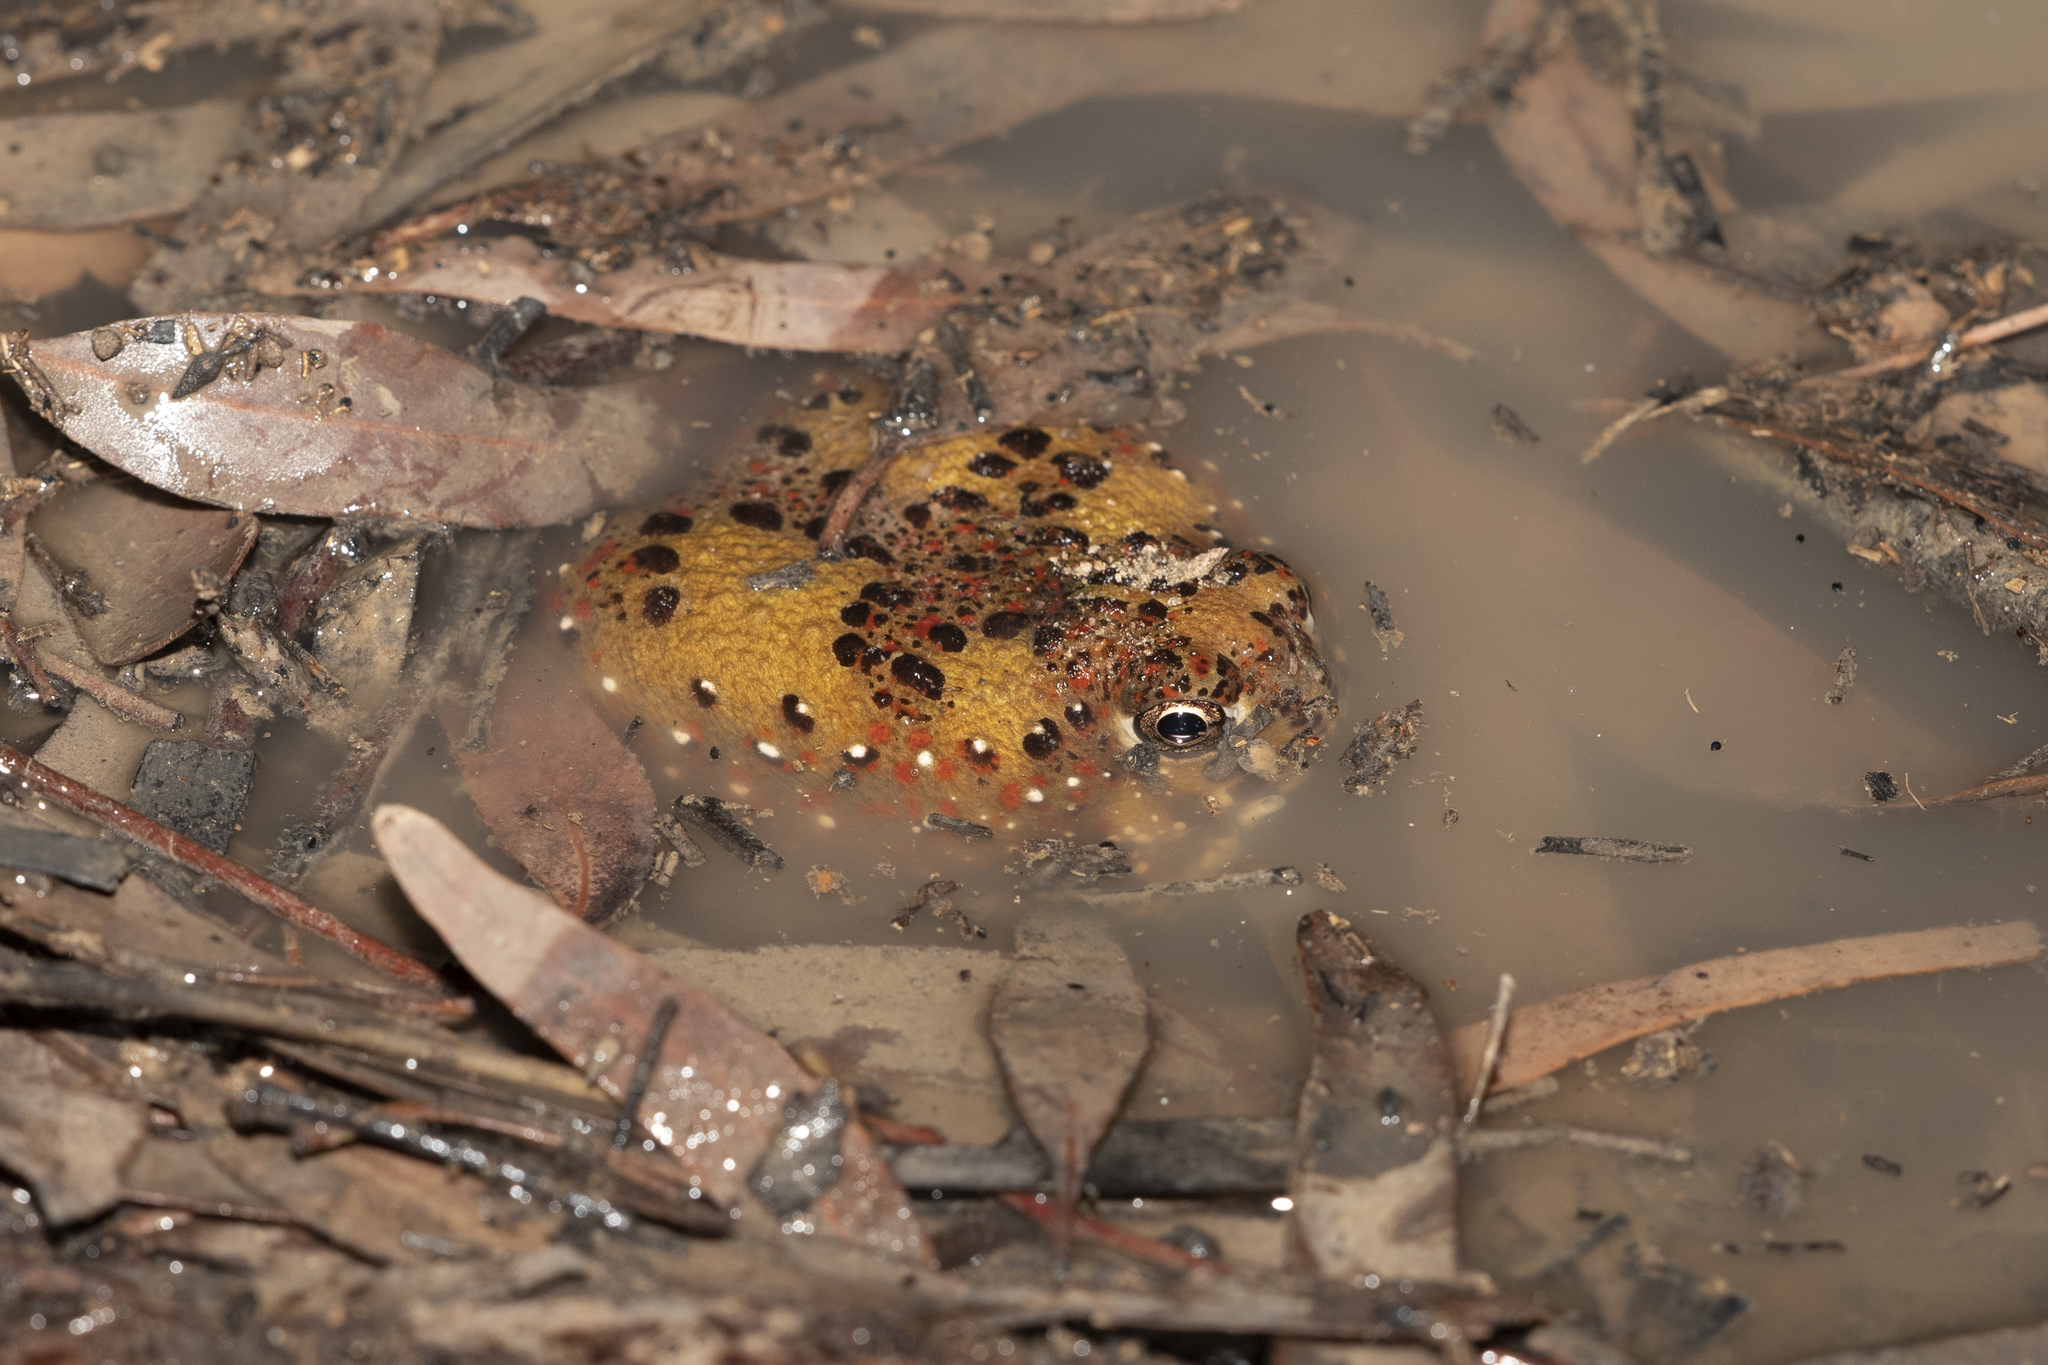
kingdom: Animalia
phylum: Chordata
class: Amphibia
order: Anura
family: Limnodynastidae
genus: Notaden
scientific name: Notaden bennettii
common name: Crucifix frog
